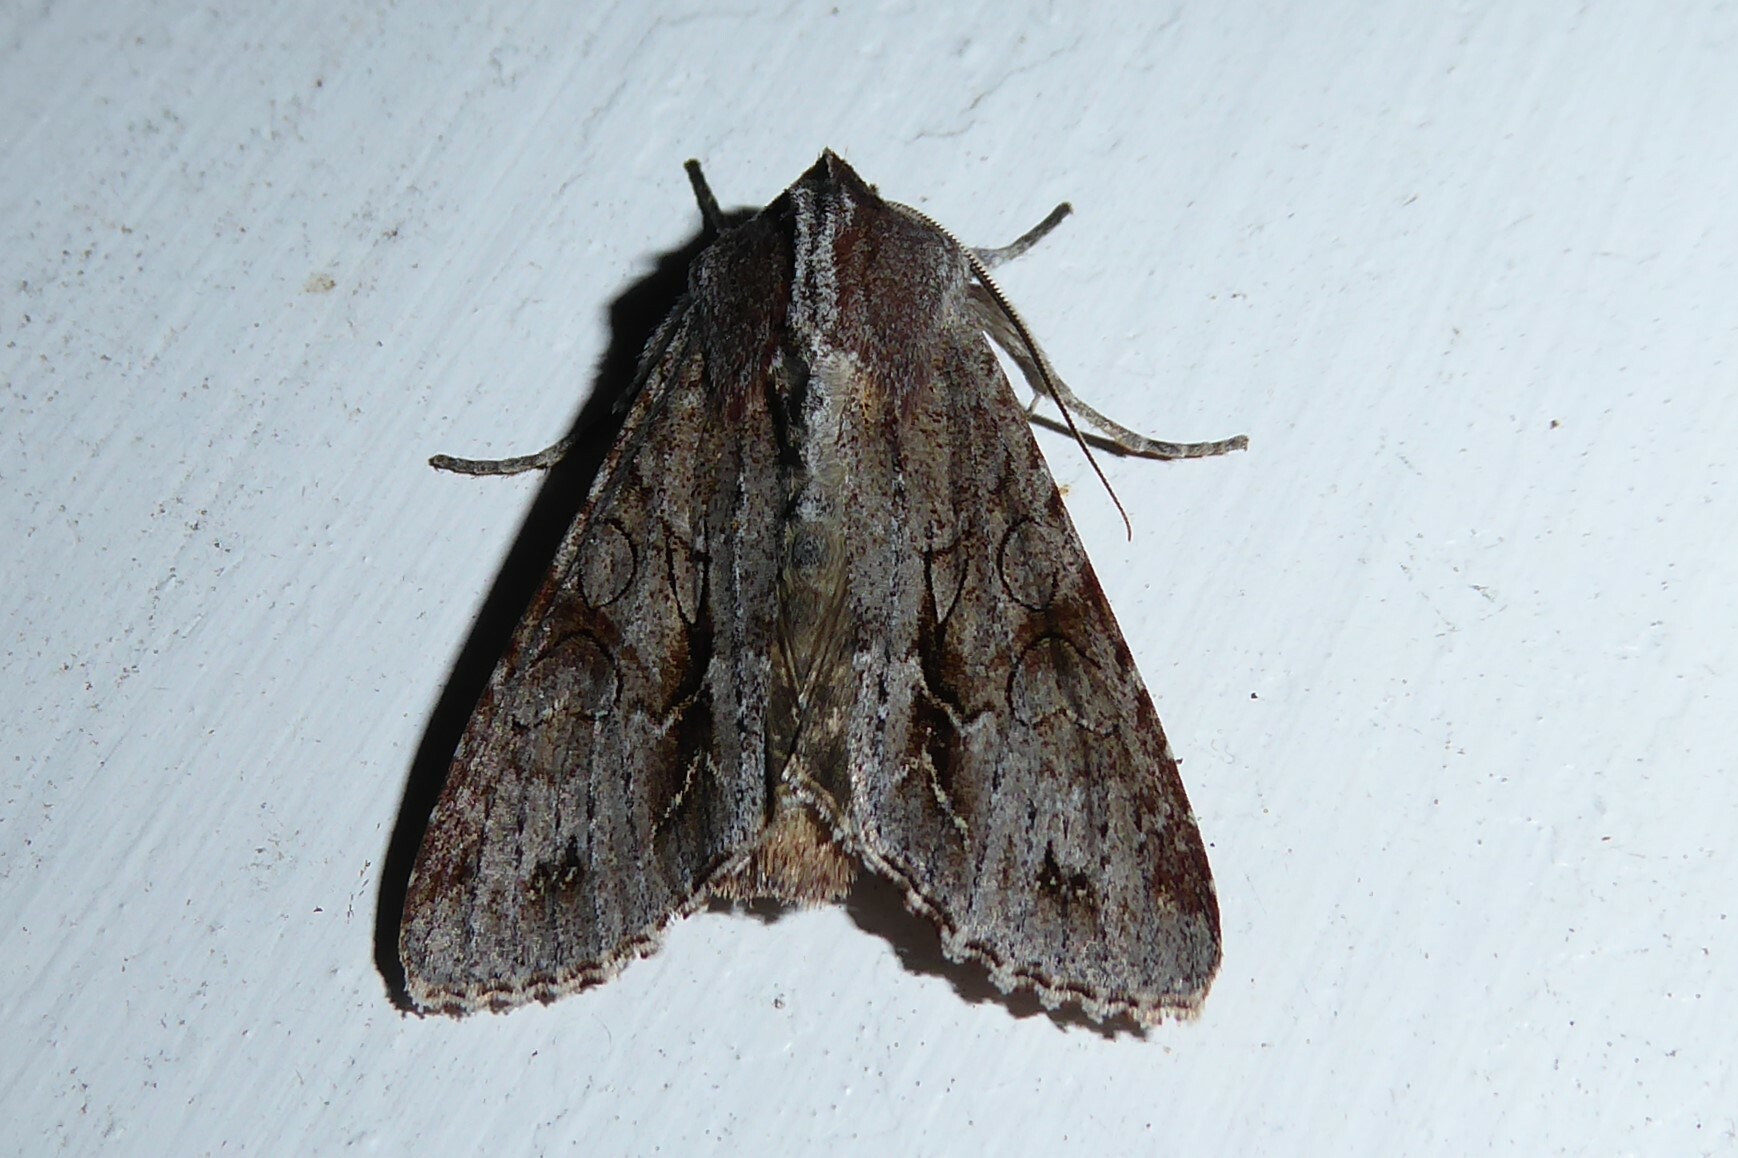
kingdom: Animalia
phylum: Arthropoda
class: Insecta
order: Lepidoptera
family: Noctuidae
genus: Ichneutica
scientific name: Ichneutica
